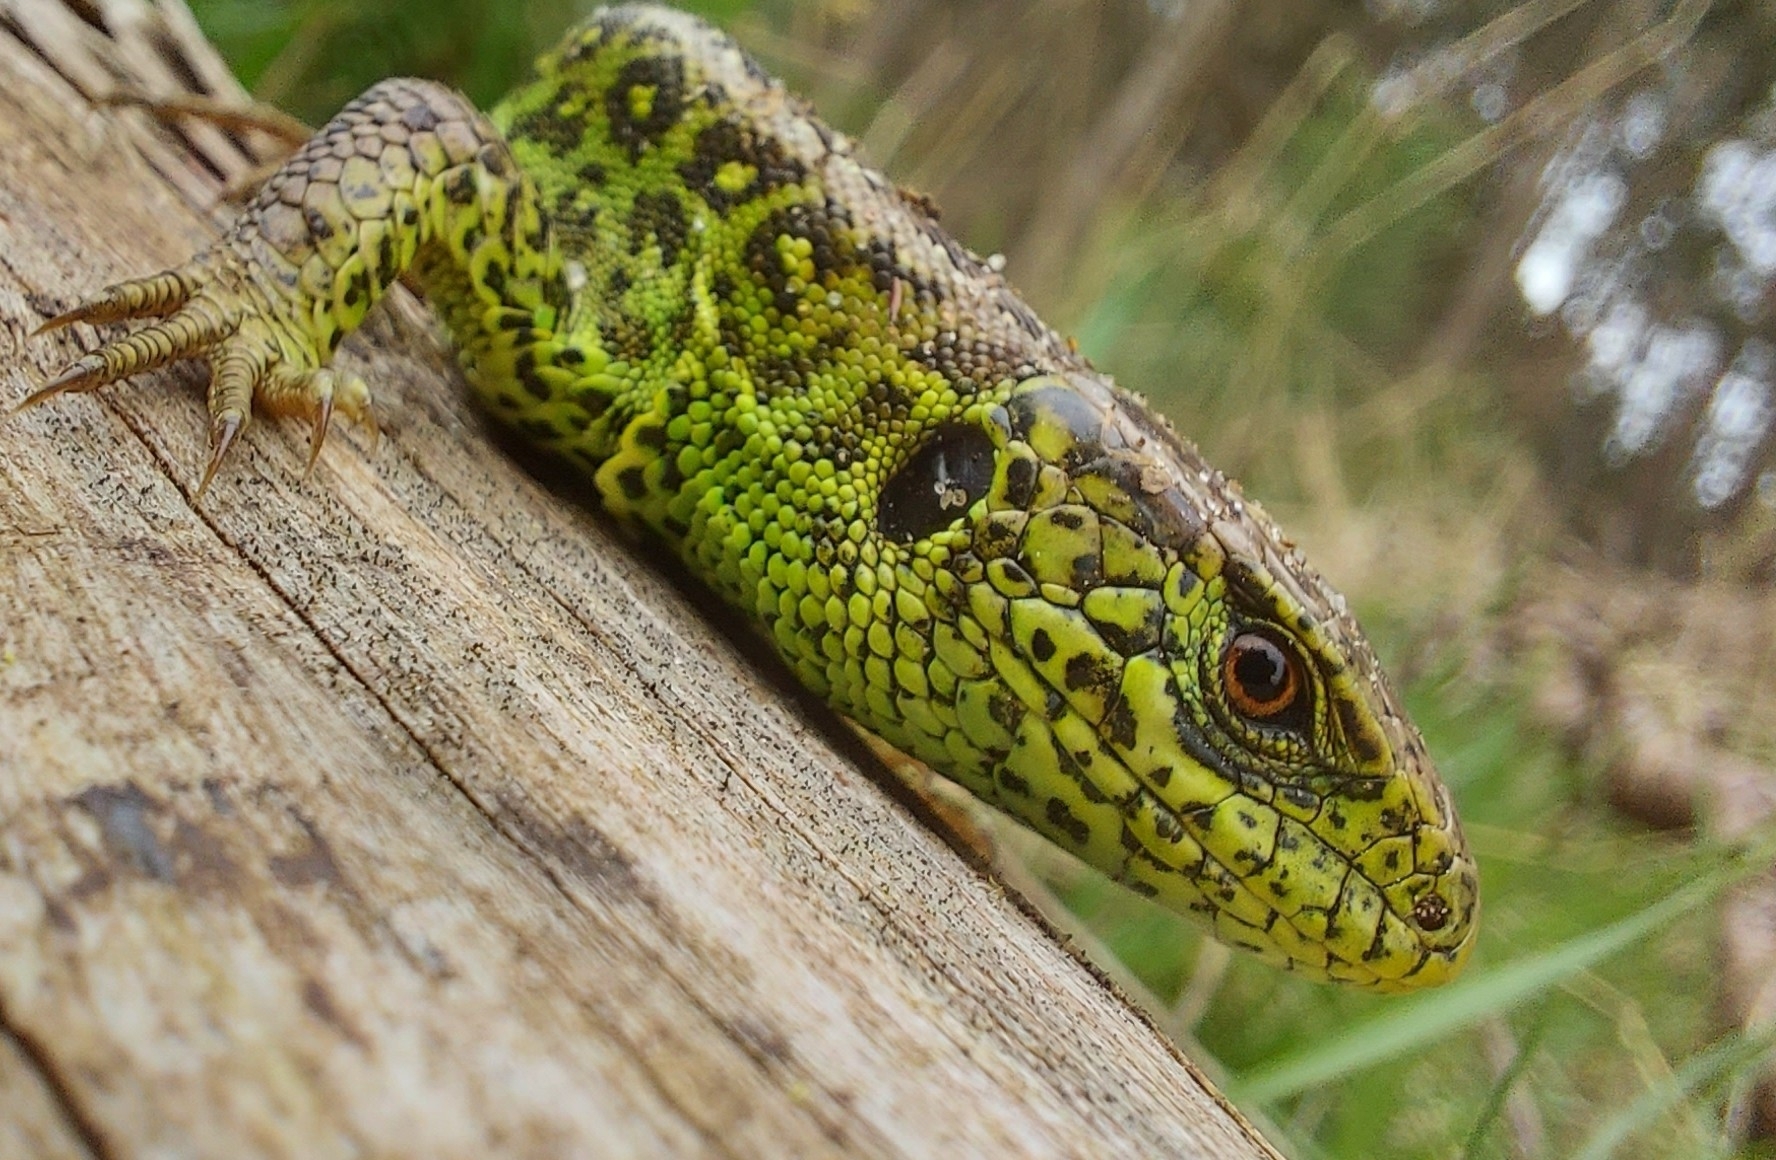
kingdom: Animalia
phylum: Chordata
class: Squamata
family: Lacertidae
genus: Lacerta
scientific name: Lacerta agilis
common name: Sand lizard
